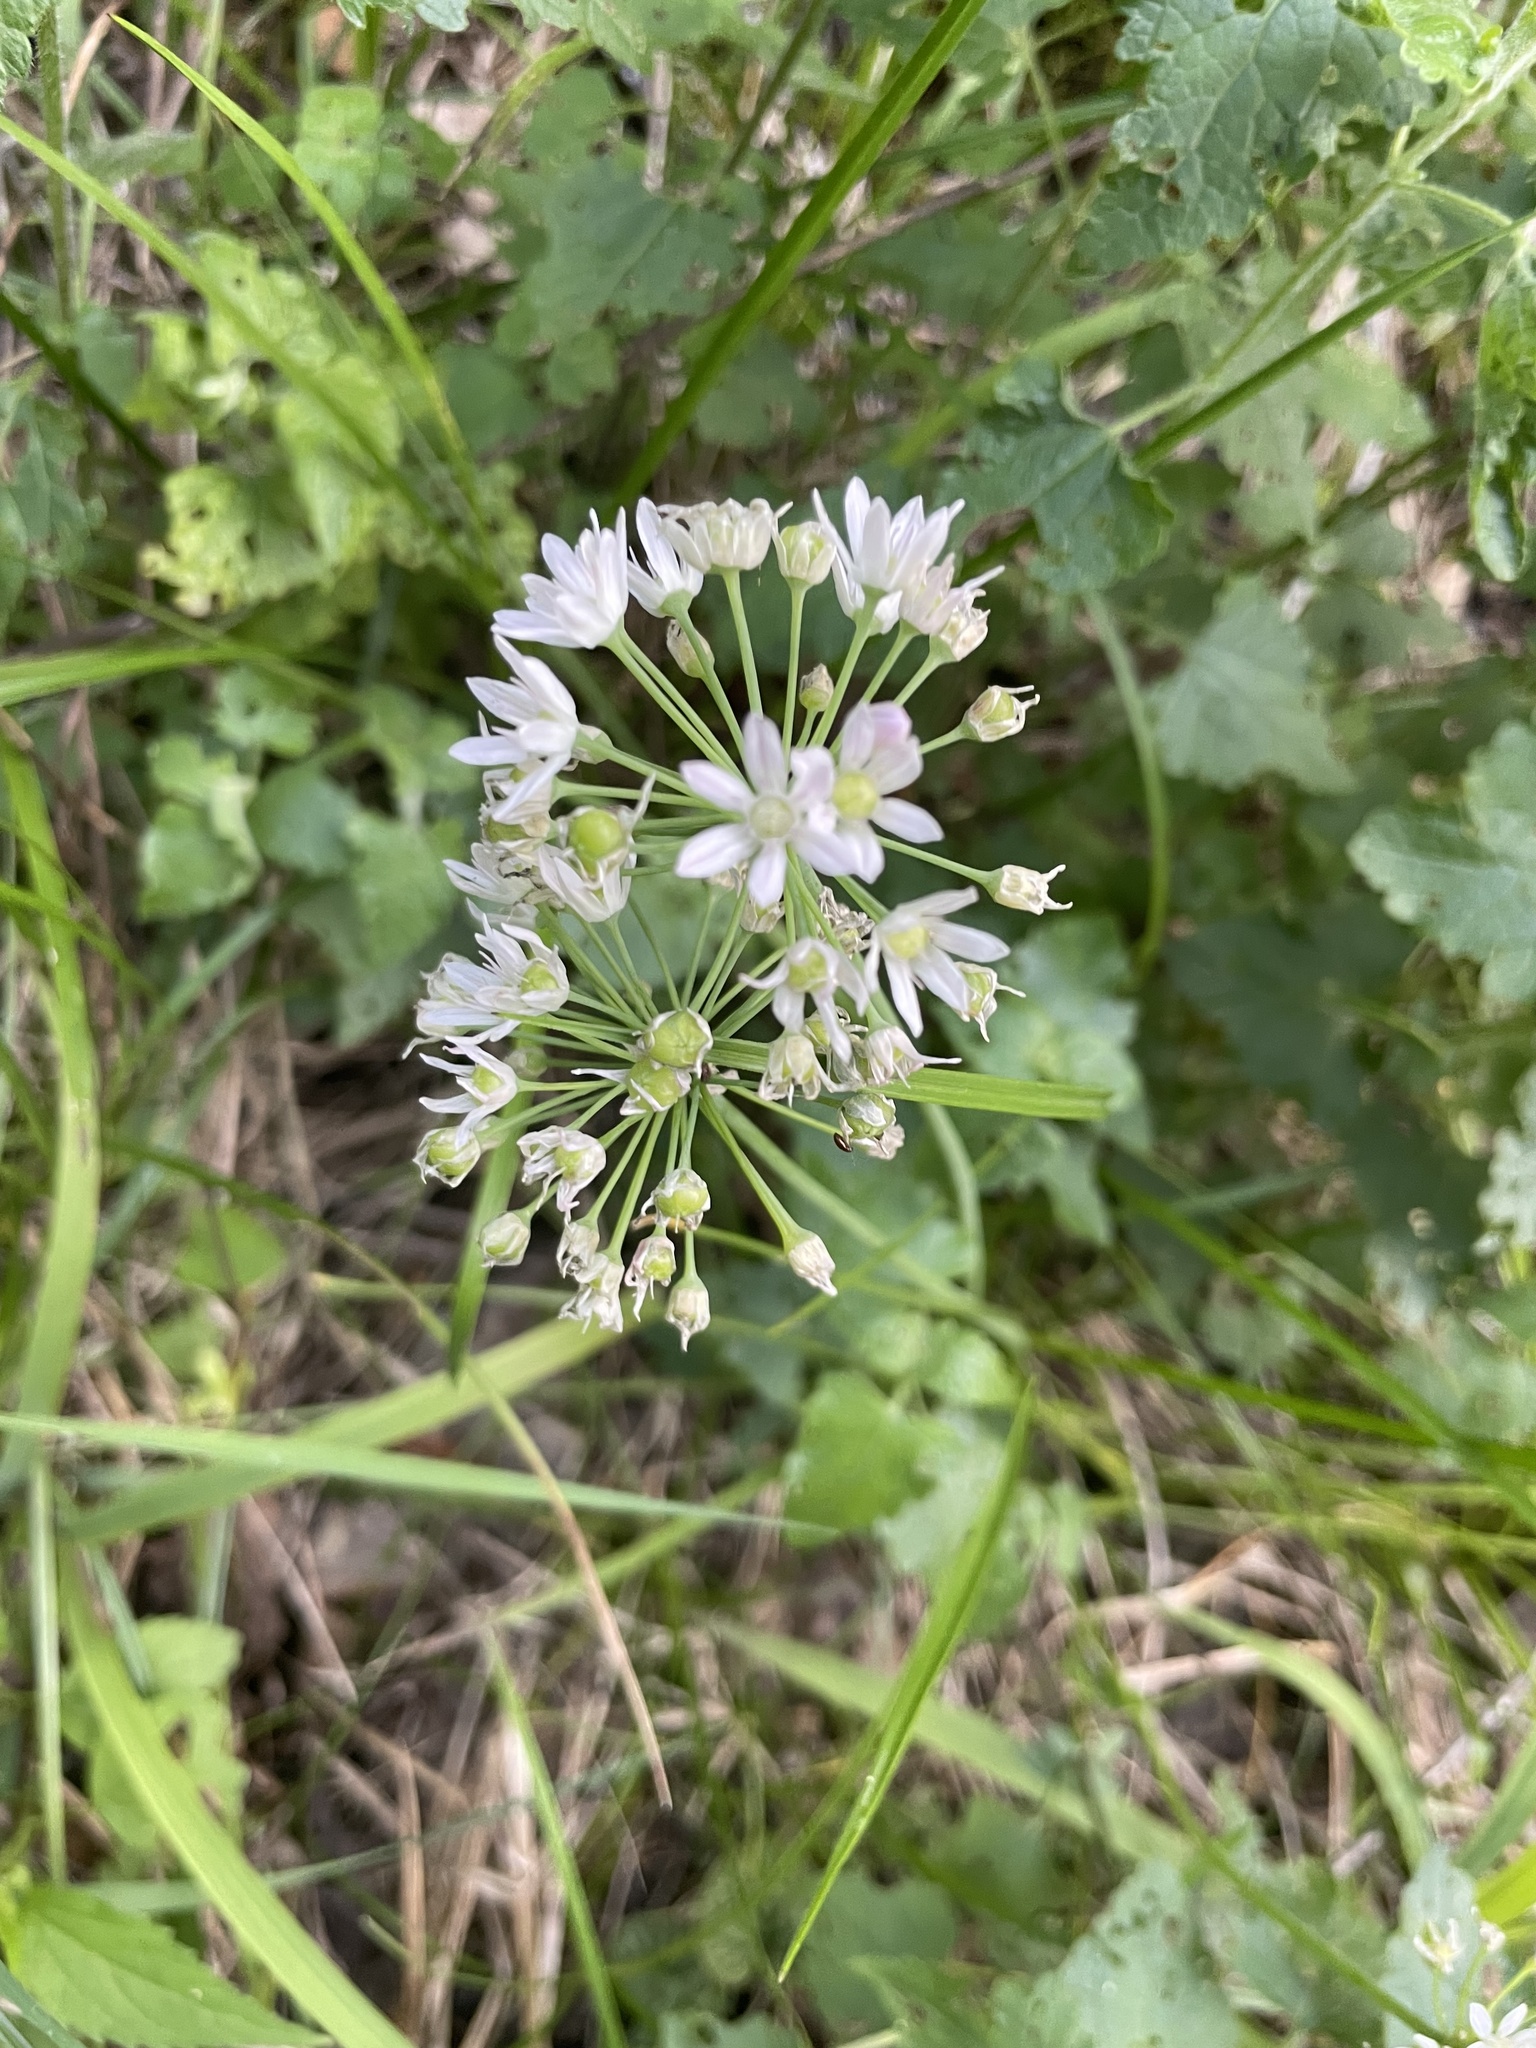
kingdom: Plantae
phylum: Tracheophyta
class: Liliopsida
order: Asparagales
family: Amaryllidaceae
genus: Allium
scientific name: Allium canadense
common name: Meadow garlic
